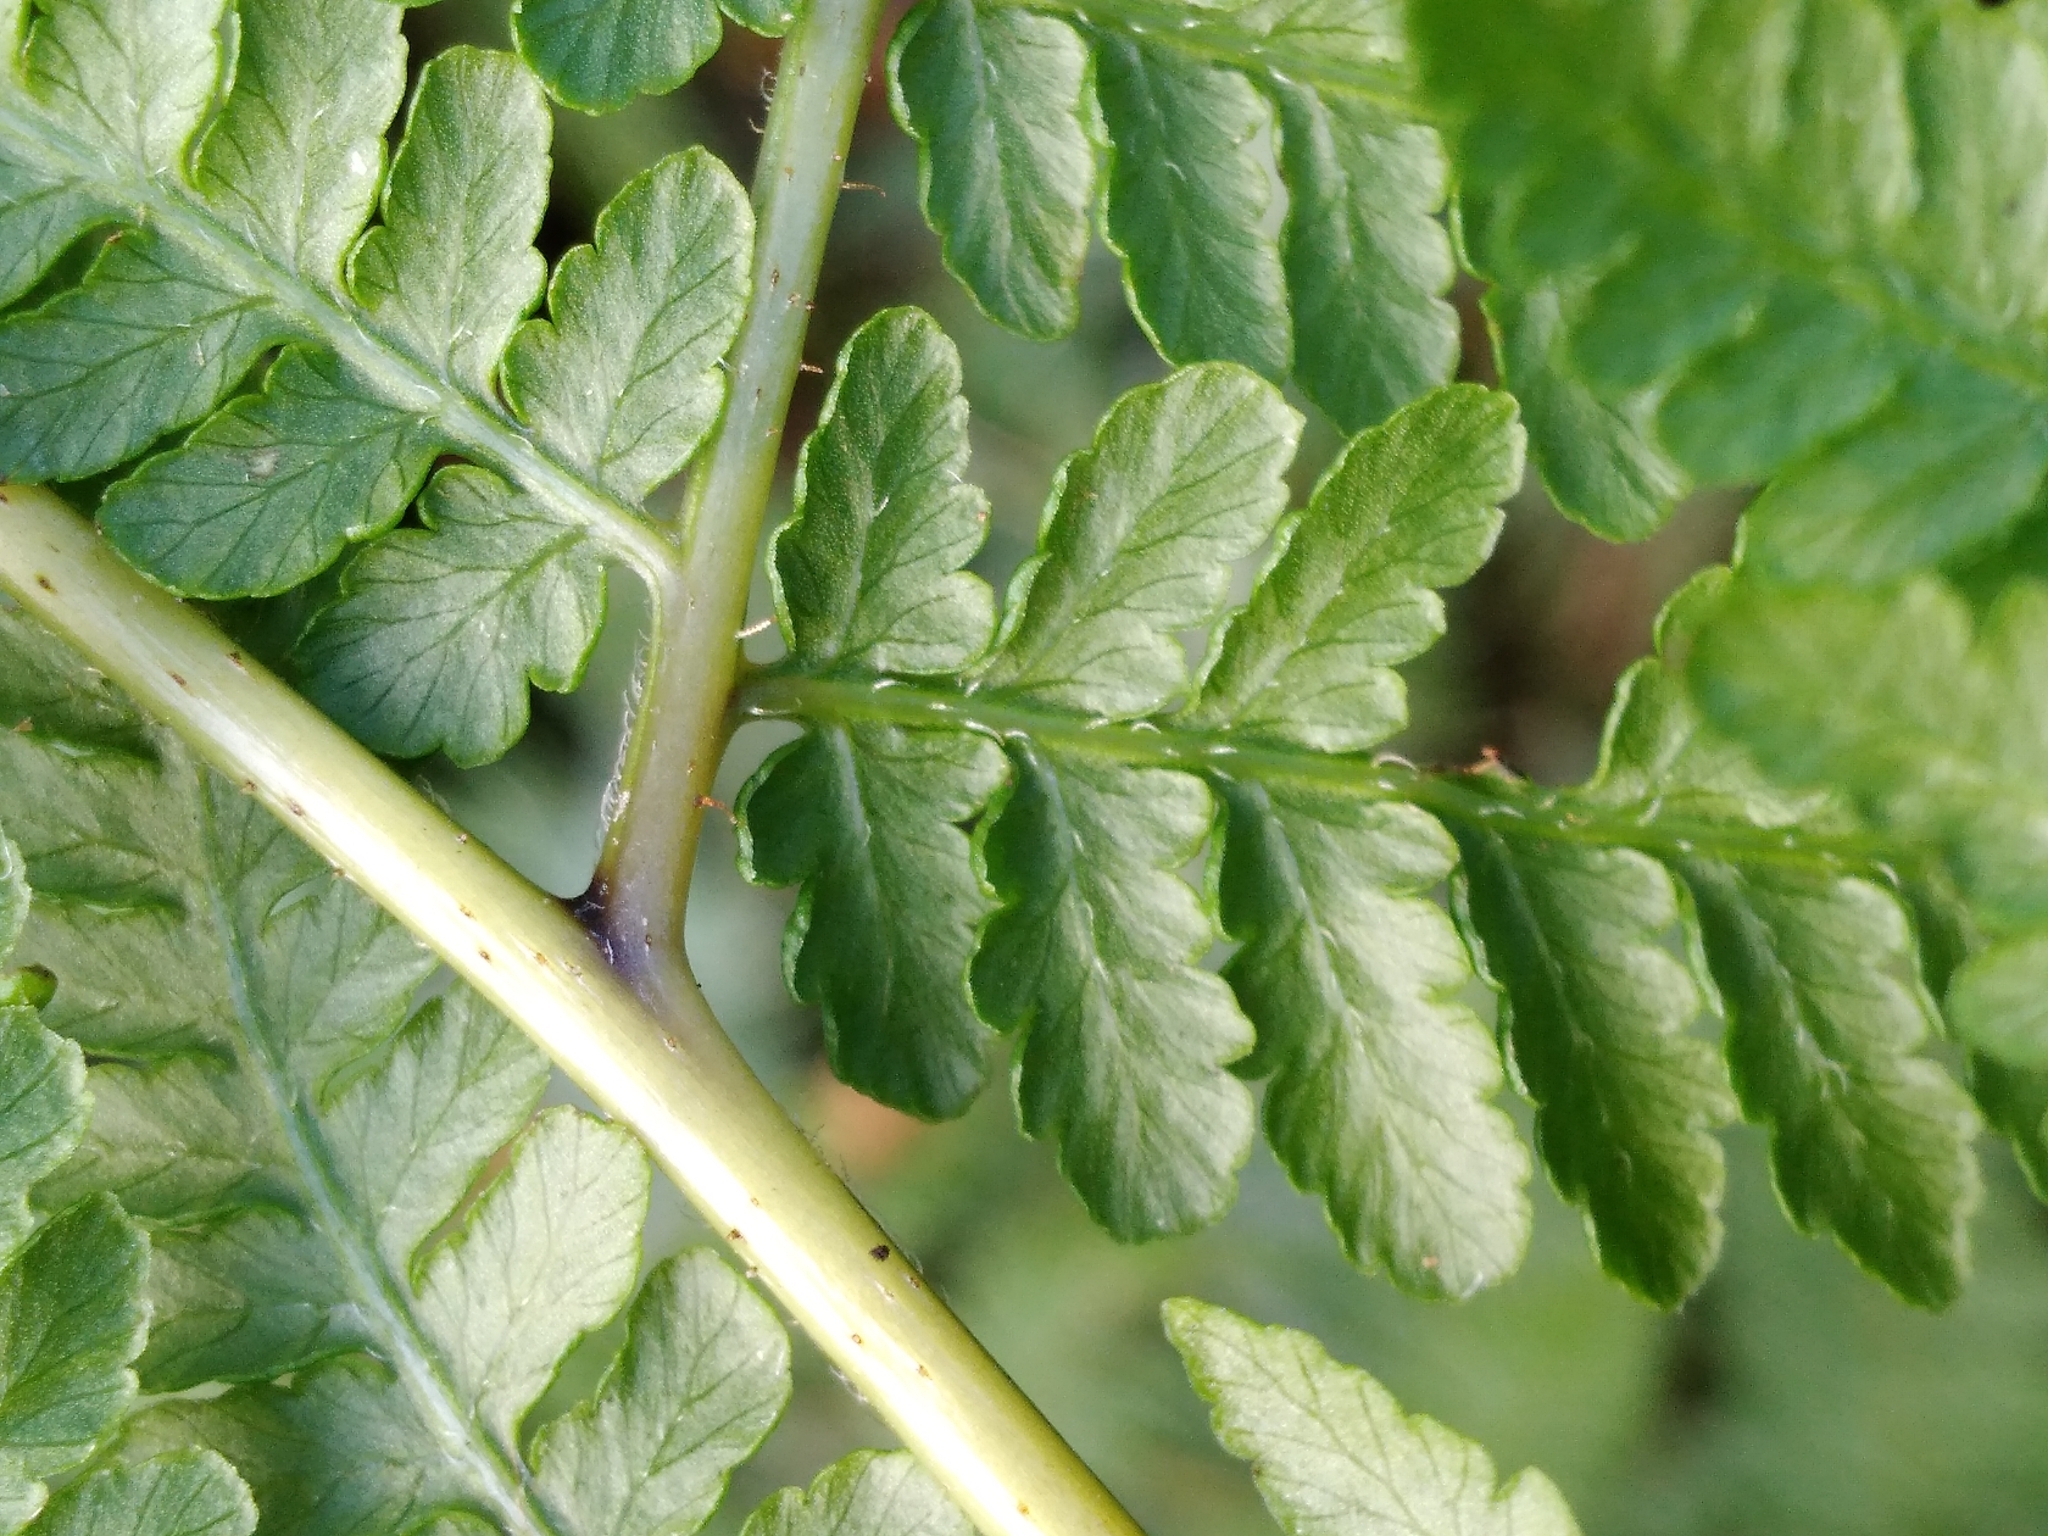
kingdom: Plantae
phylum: Tracheophyta
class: Polypodiopsida
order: Polypodiales
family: Dennstaedtiaceae
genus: Hypolepis
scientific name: Hypolepis ambigua
